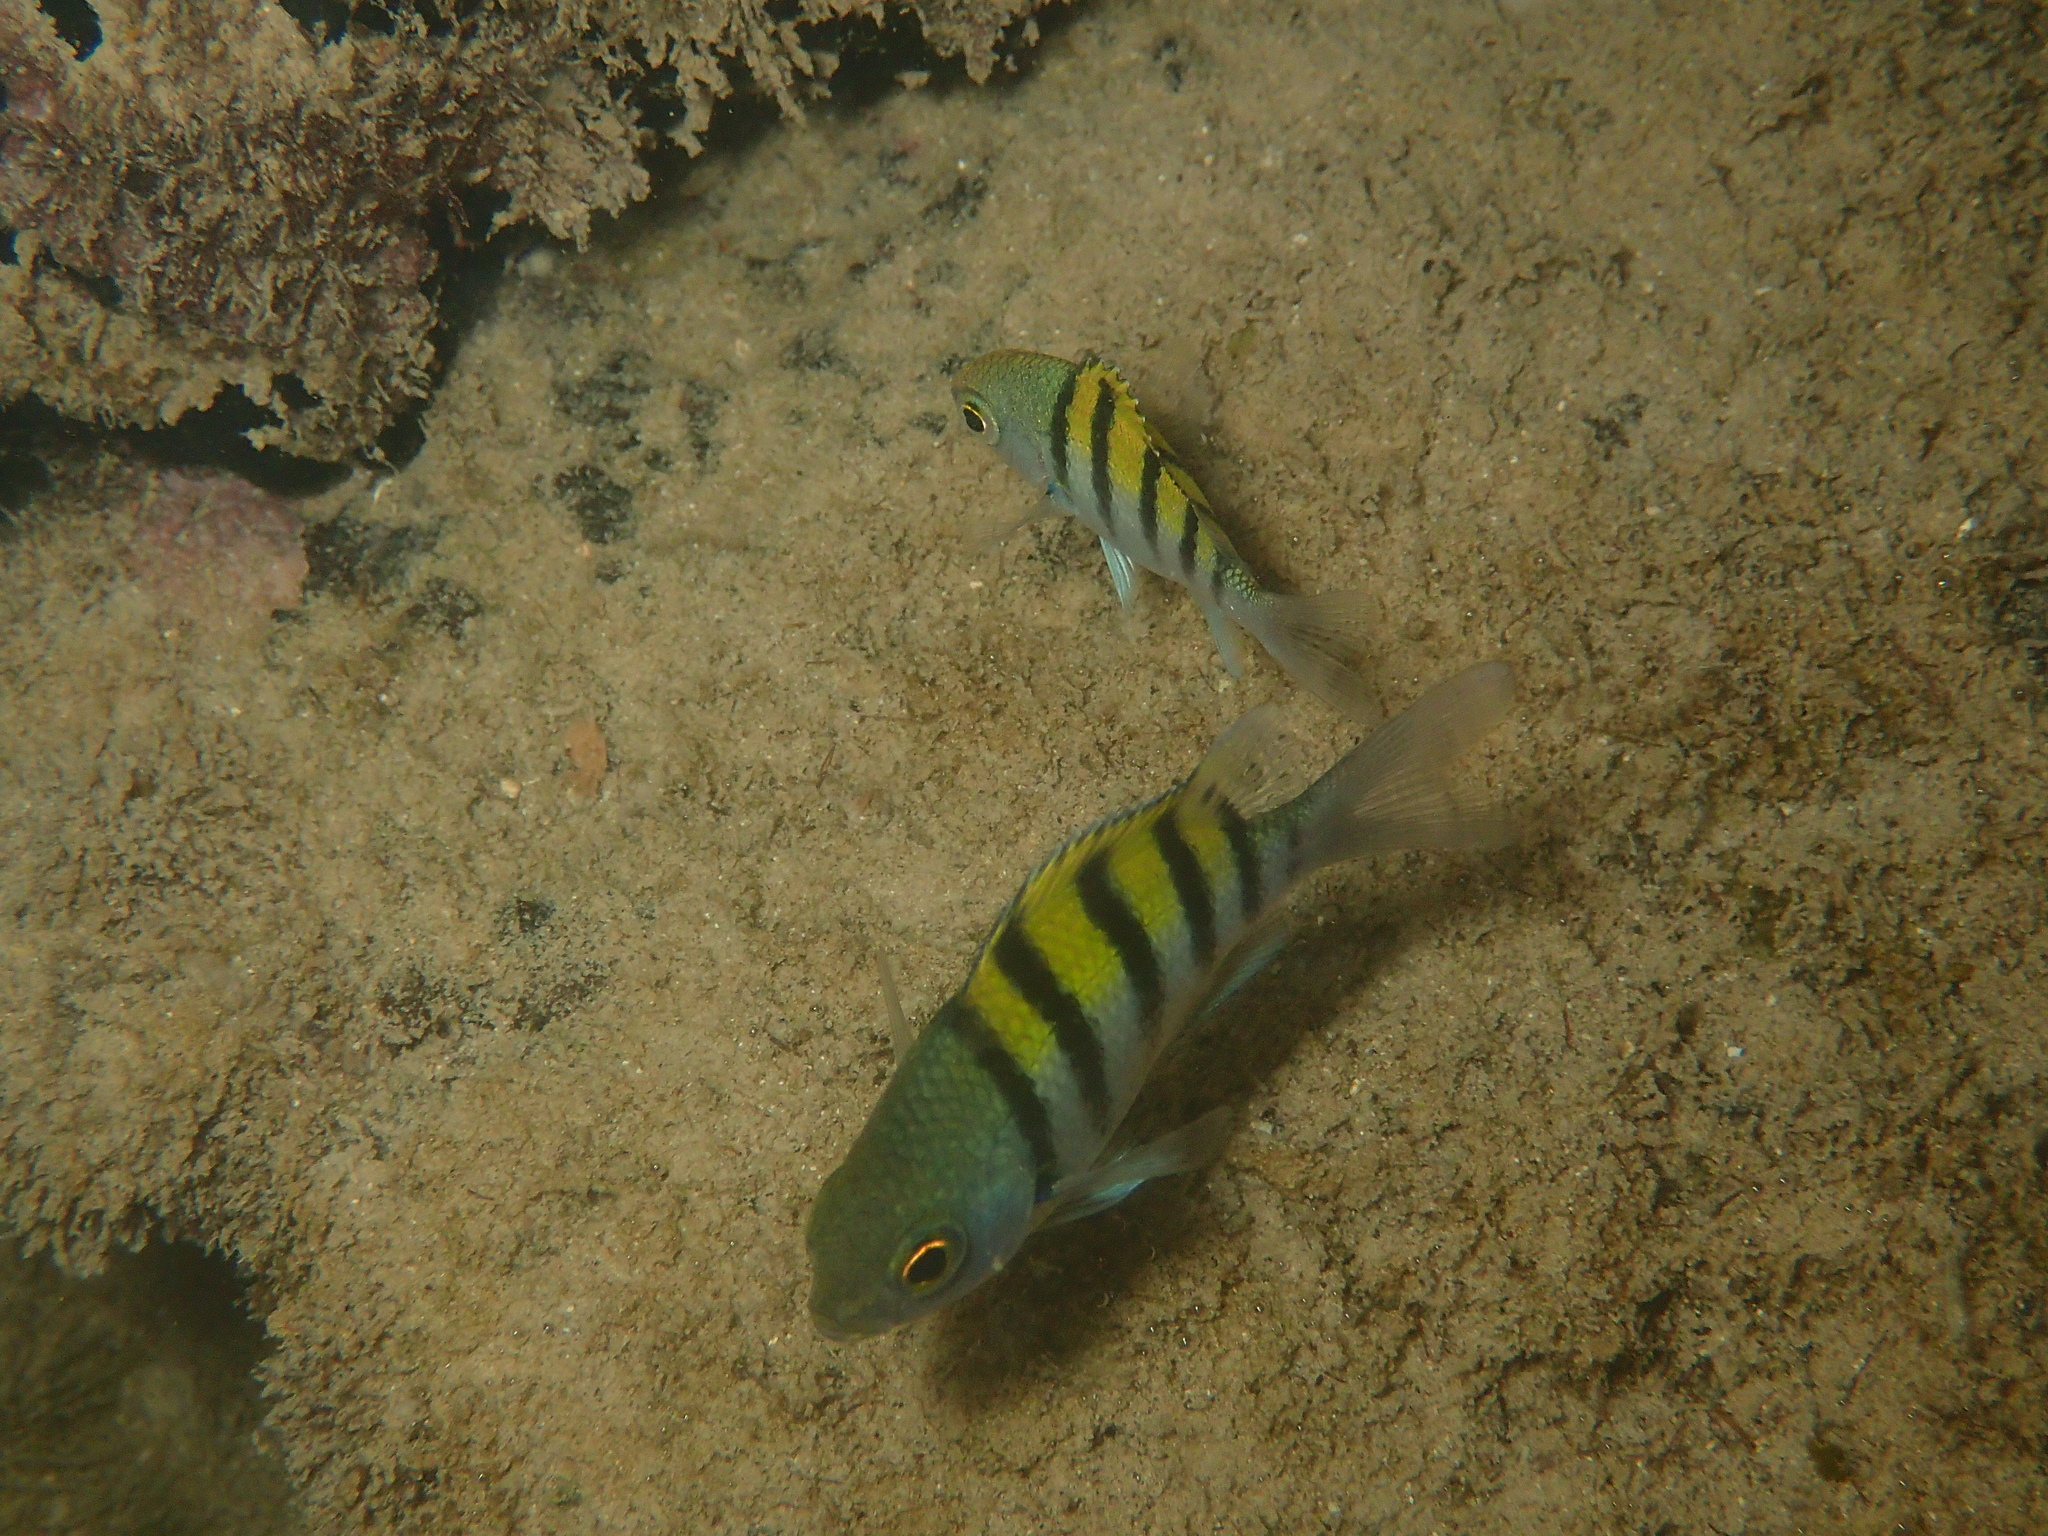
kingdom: Animalia
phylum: Chordata
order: Perciformes
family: Pomacentridae
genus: Abudefduf
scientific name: Abudefduf troschelii
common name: Panamic sergeant major
